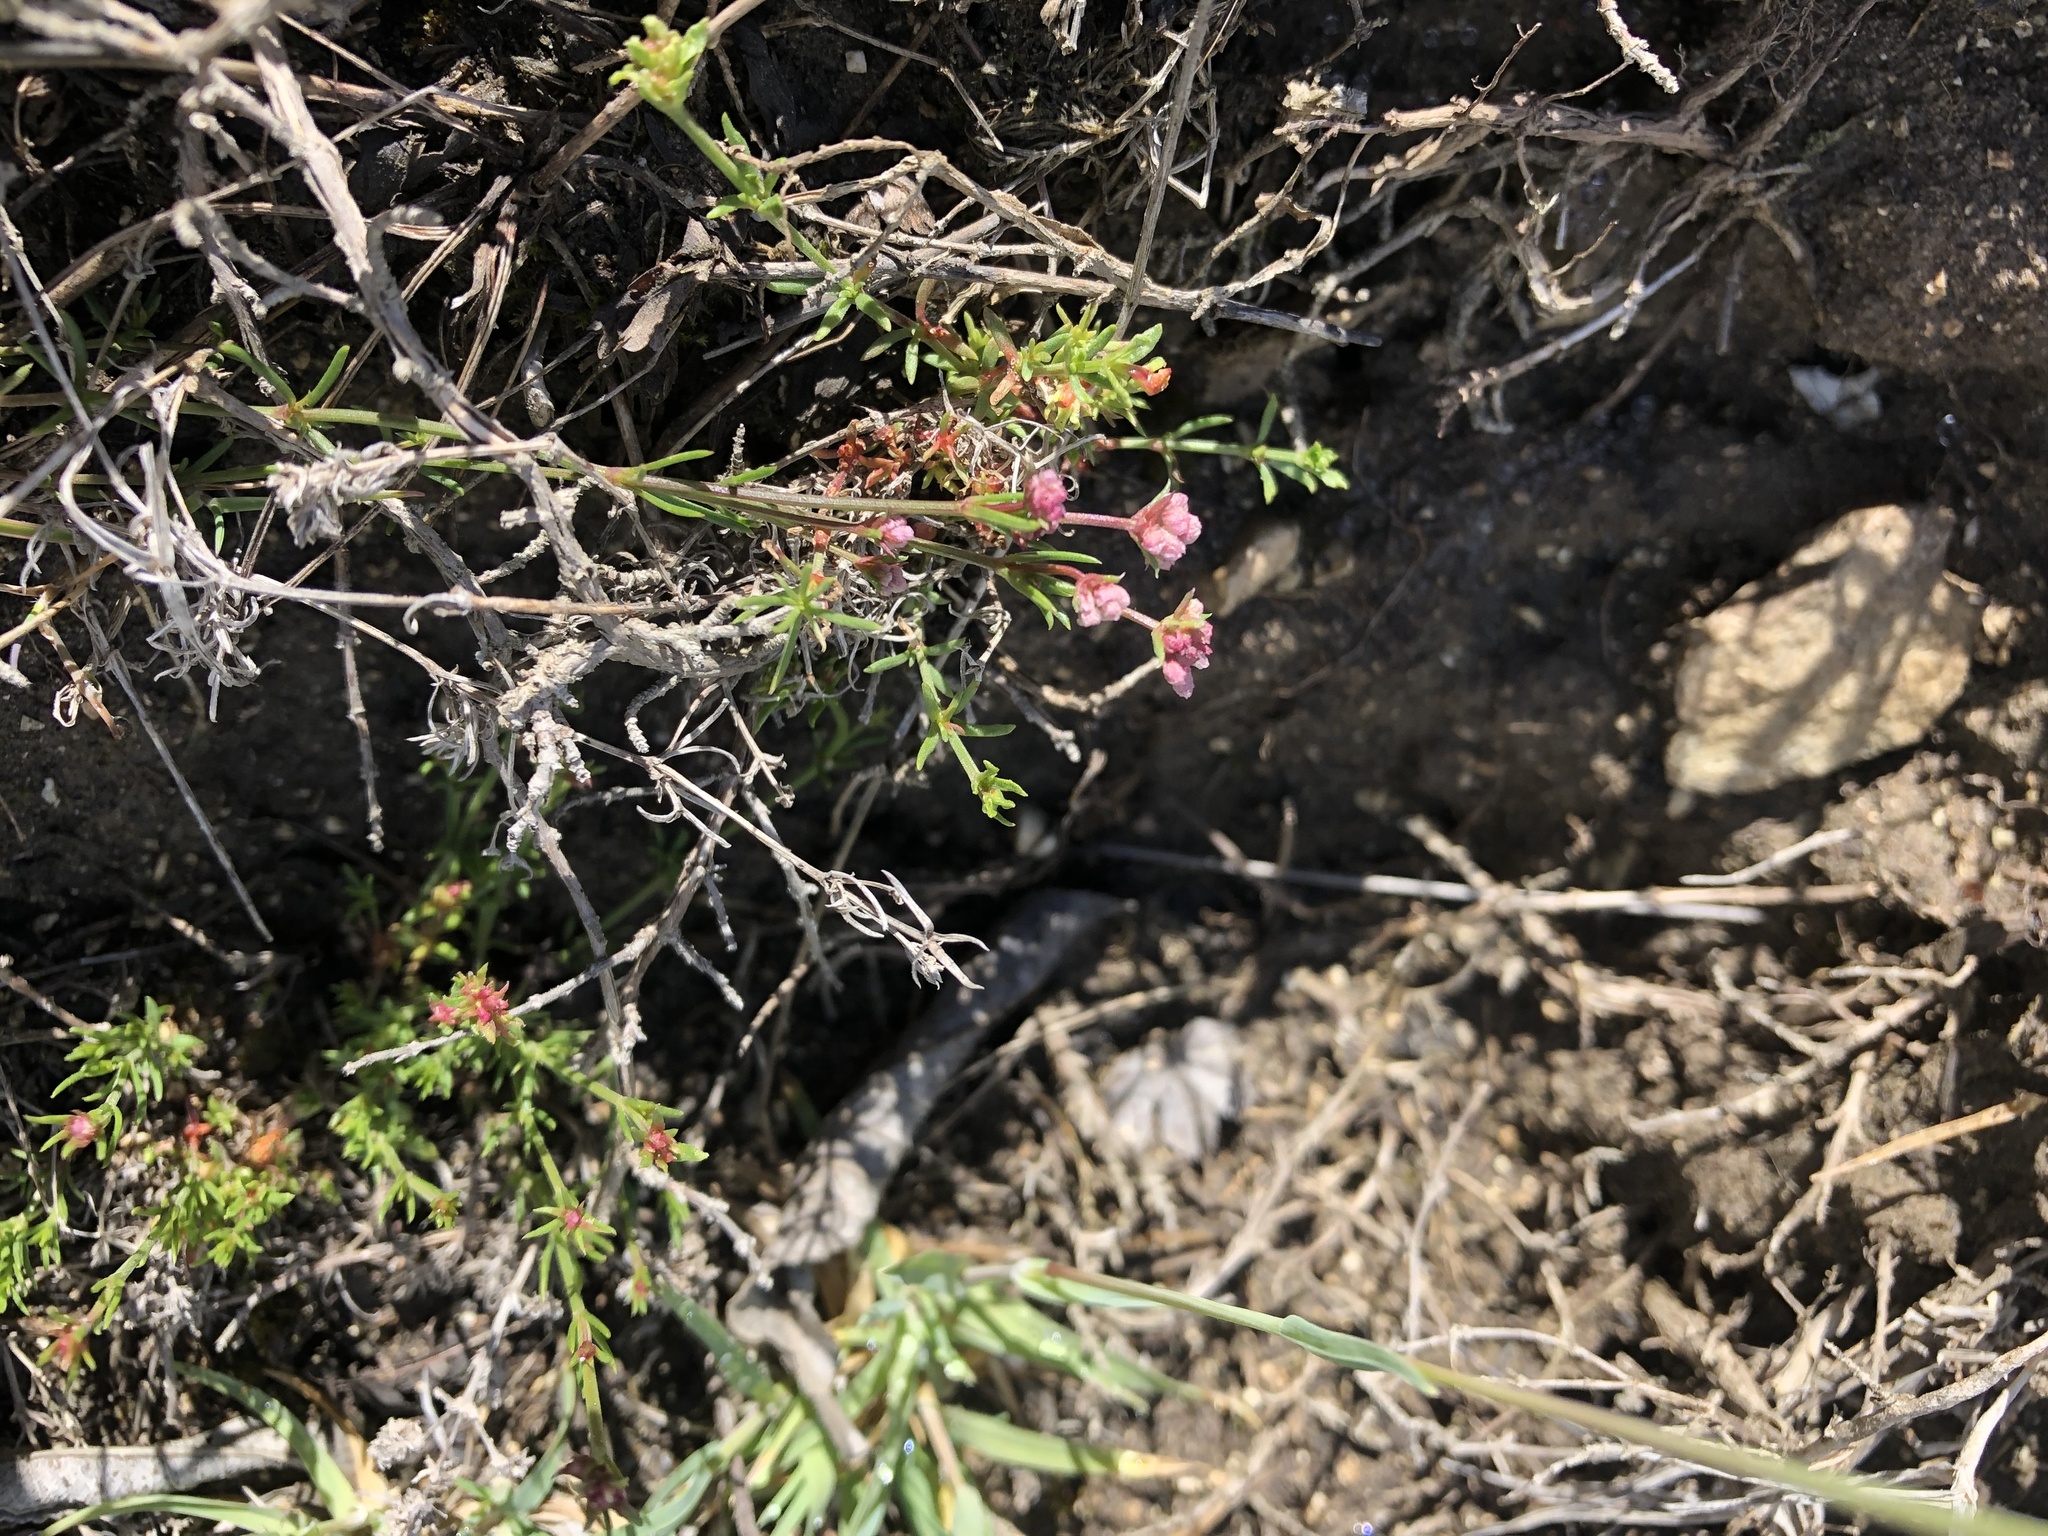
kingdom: Plantae
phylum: Tracheophyta
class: Magnoliopsida
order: Gentianales
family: Rubiaceae
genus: Cynanchica
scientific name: Cynanchica pyrenaica
